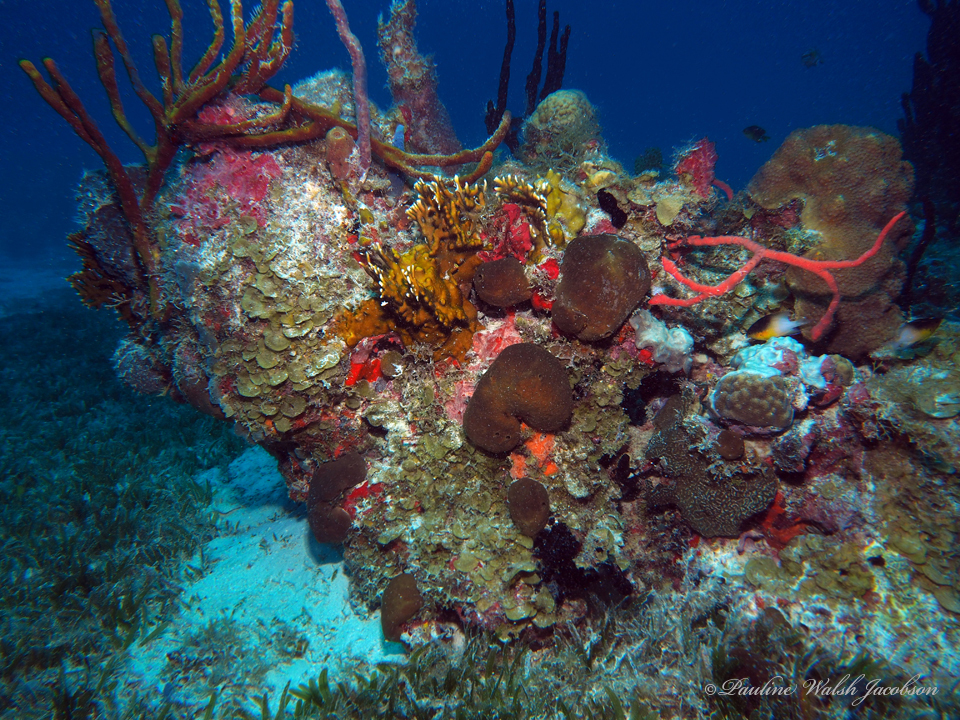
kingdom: Animalia
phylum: Chordata
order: Perciformes
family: Pomacentridae
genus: Stegastes
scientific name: Stegastes partitus
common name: Bicolor damselfish
